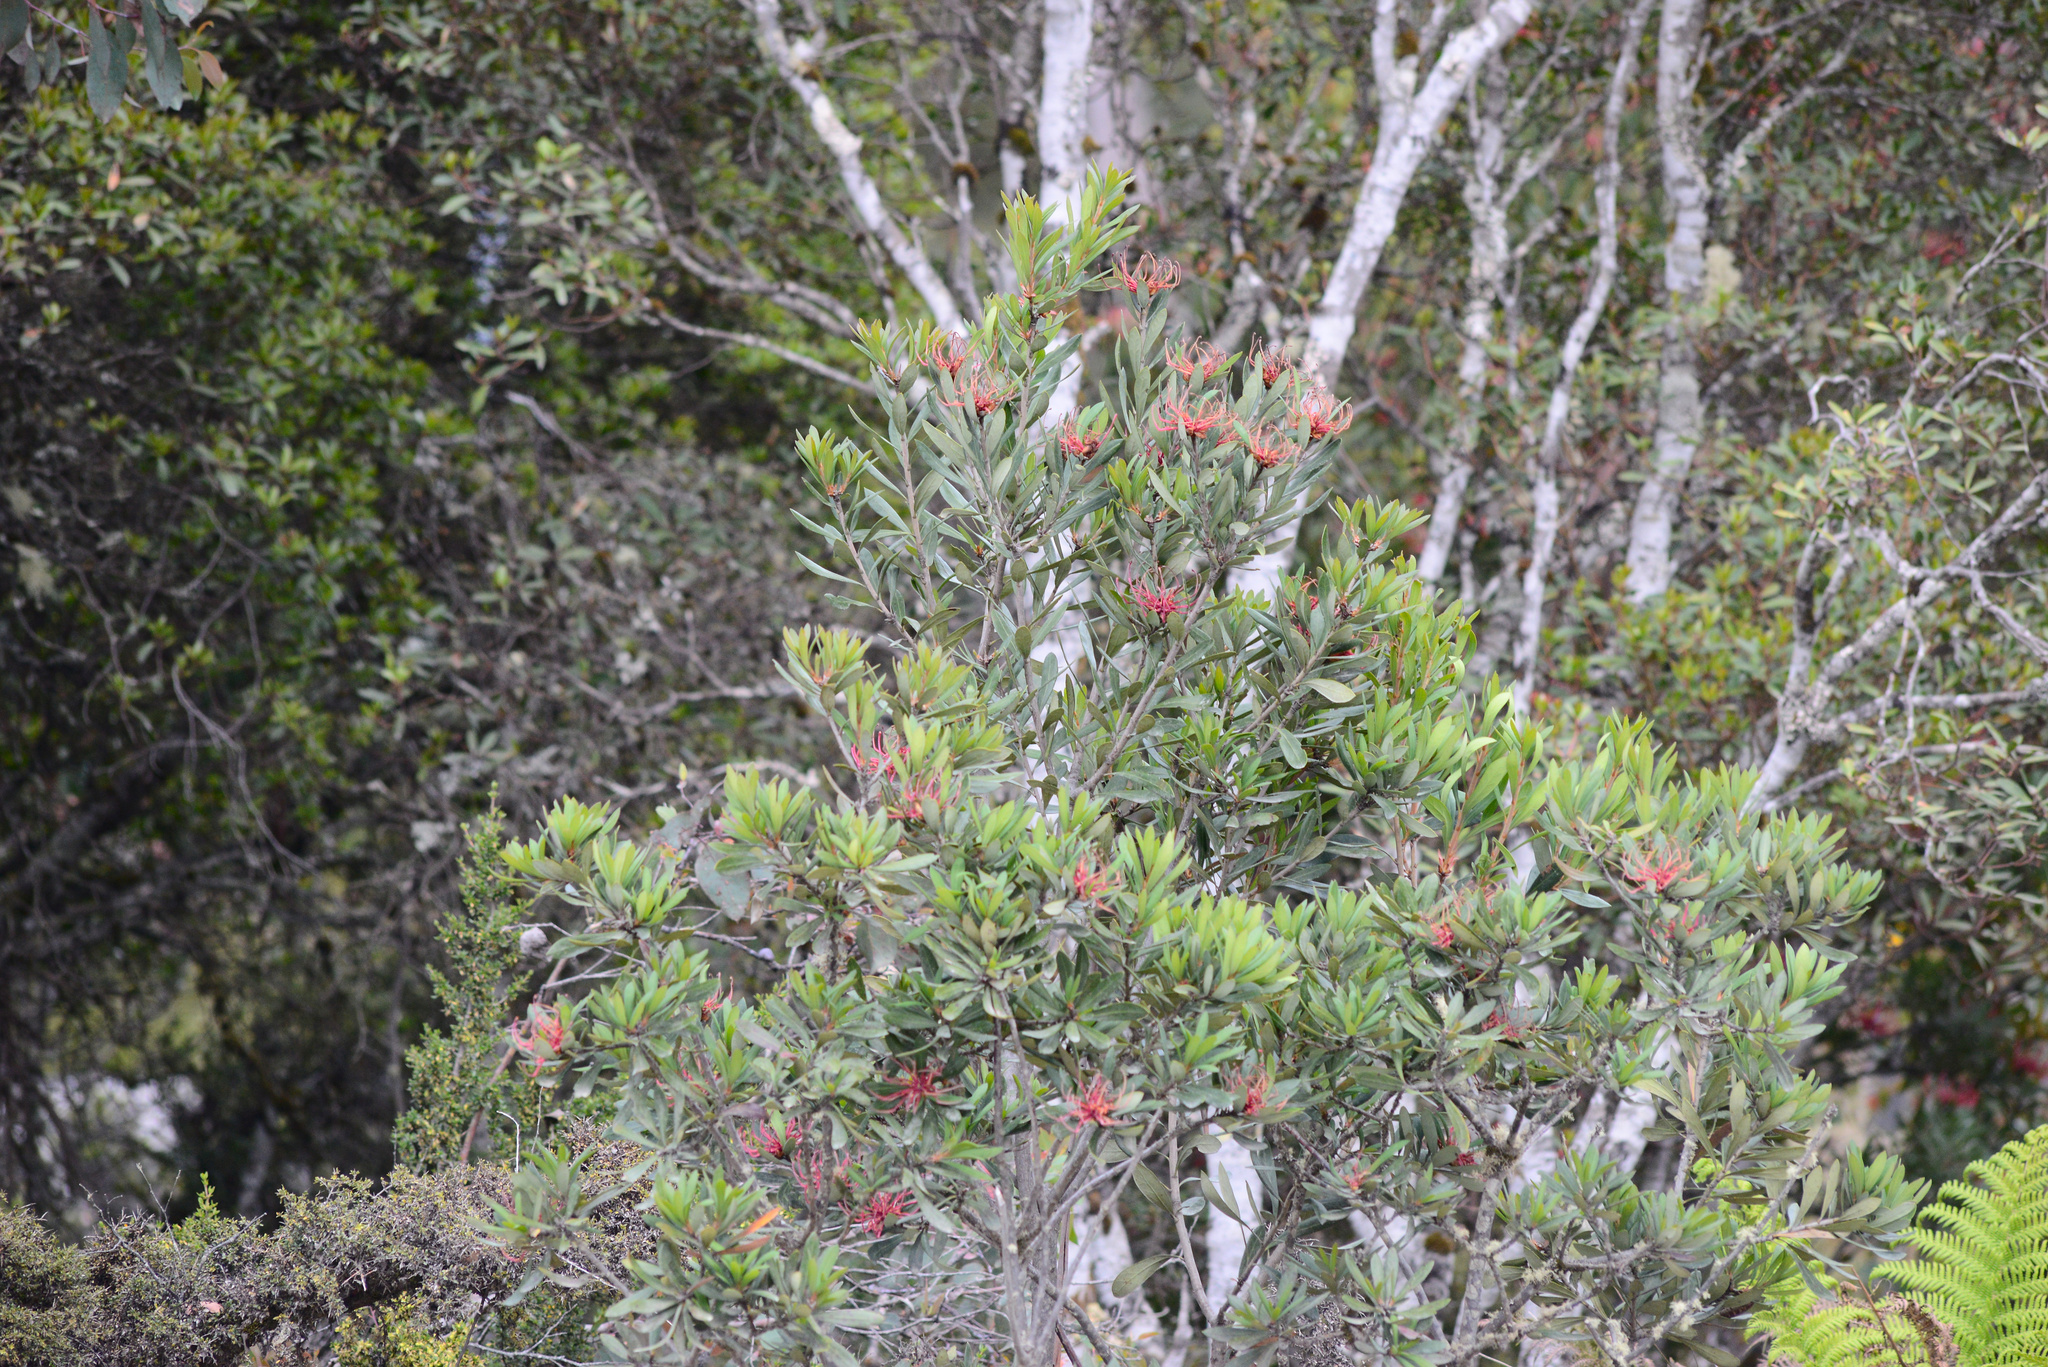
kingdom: Plantae
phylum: Tracheophyta
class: Magnoliopsida
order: Proteales
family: Proteaceae
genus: Telopea
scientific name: Telopea truncata
